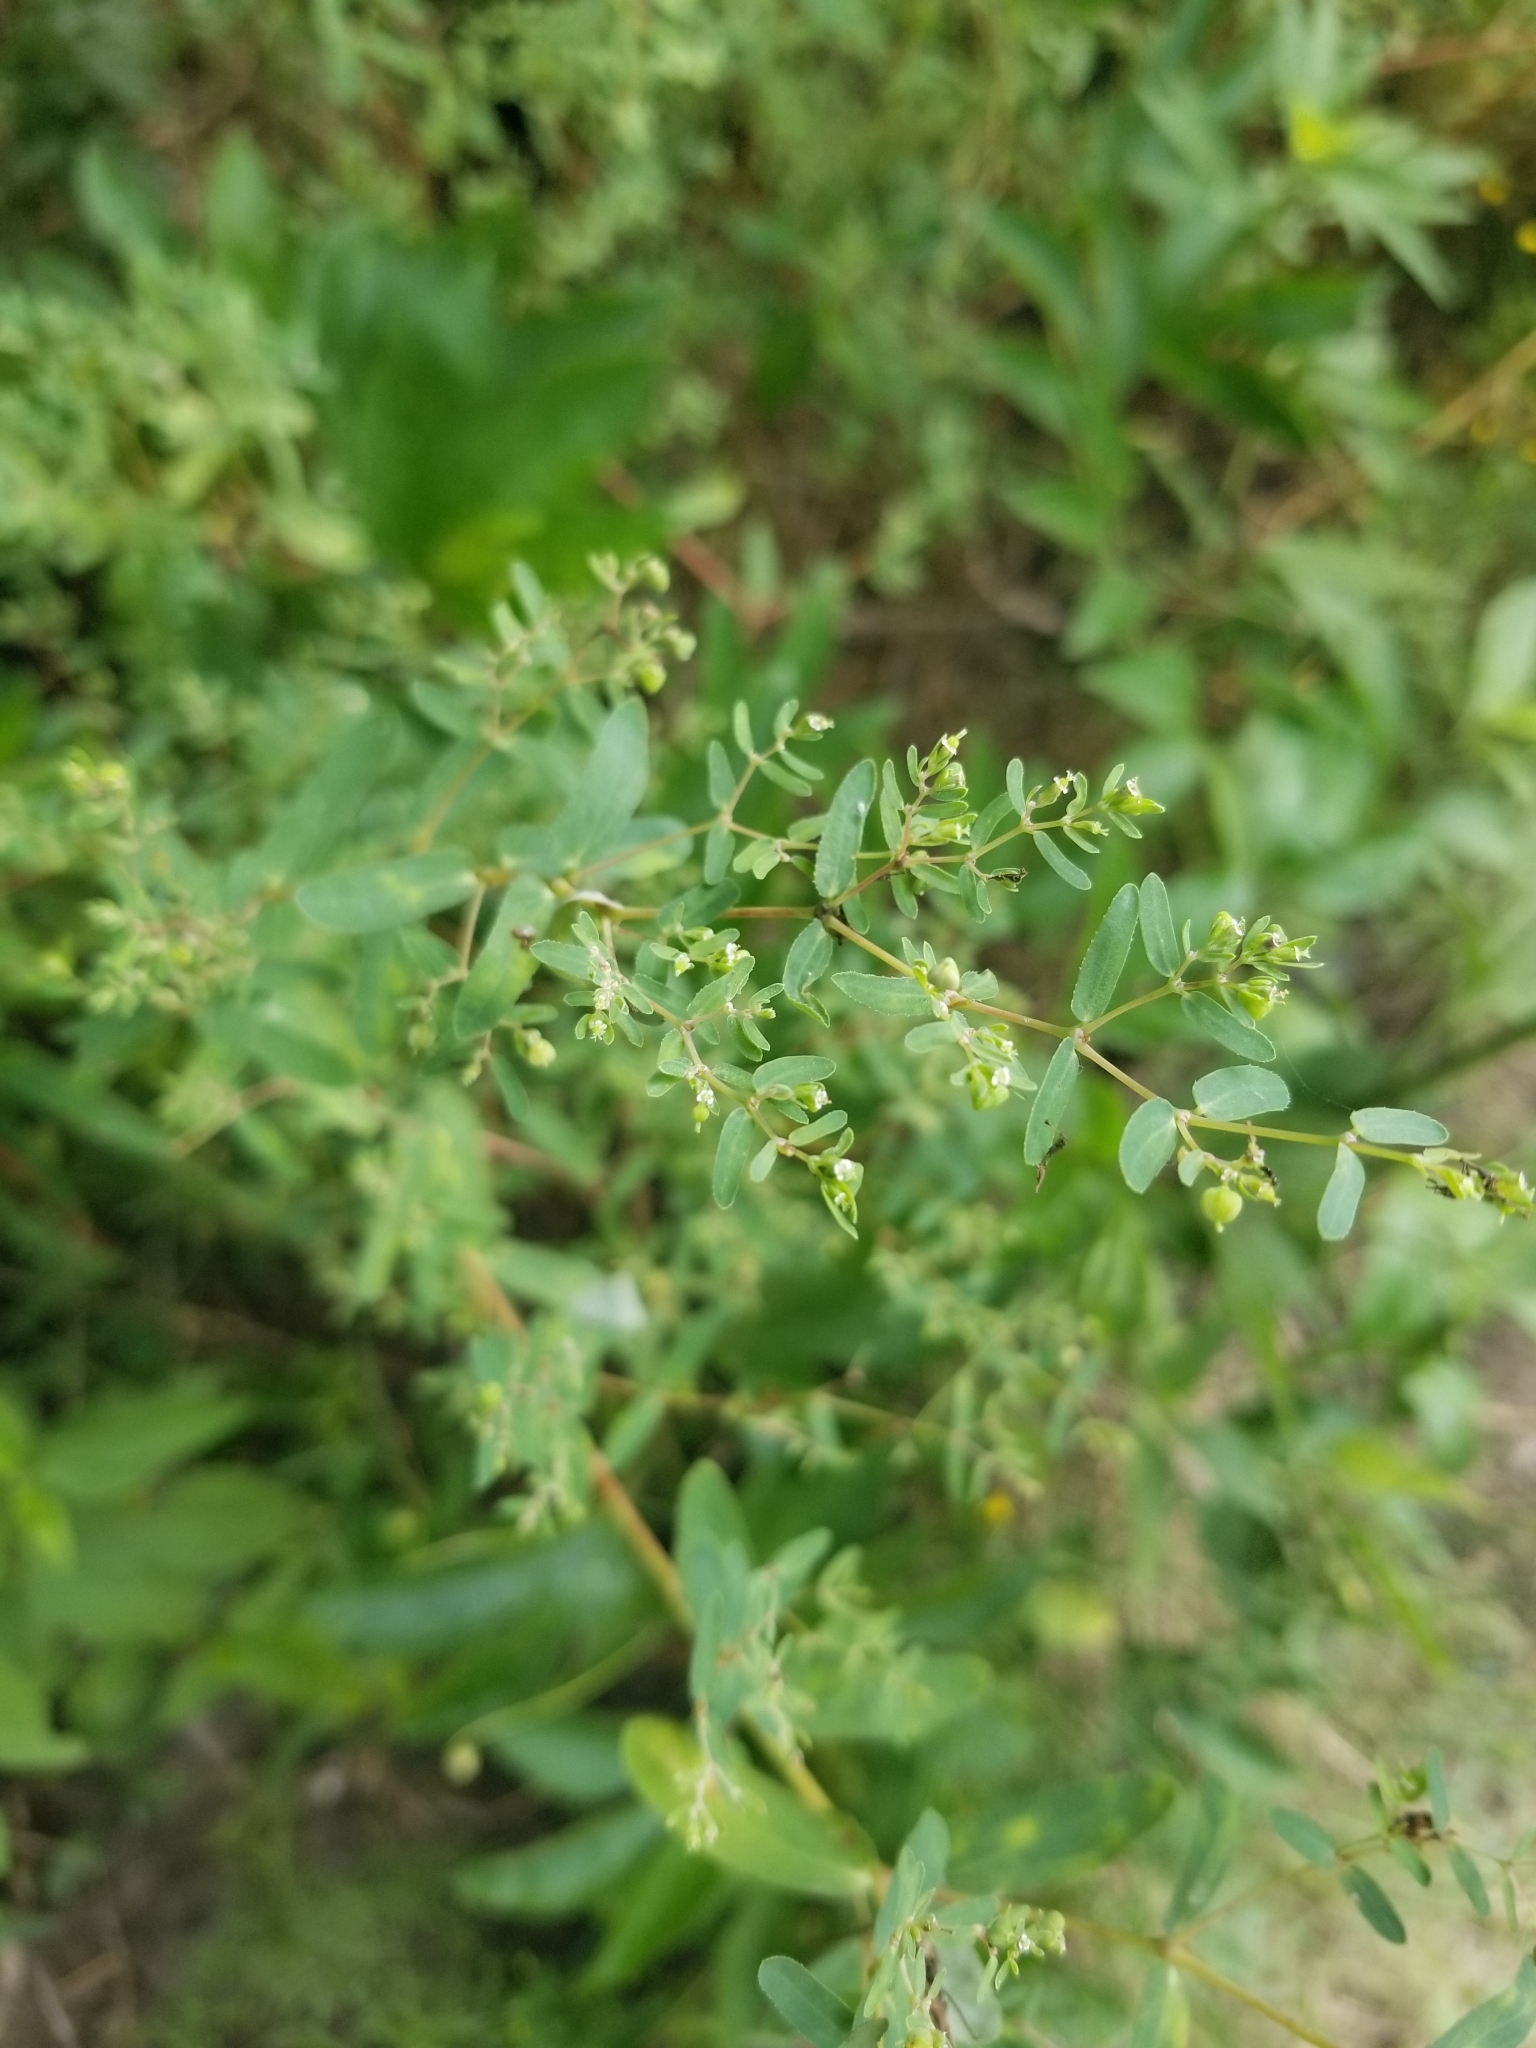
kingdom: Plantae
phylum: Tracheophyta
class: Magnoliopsida
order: Malpighiales
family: Euphorbiaceae
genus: Euphorbia
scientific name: Euphorbia hyssopifolia
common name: Hyssopleaf sandmat
